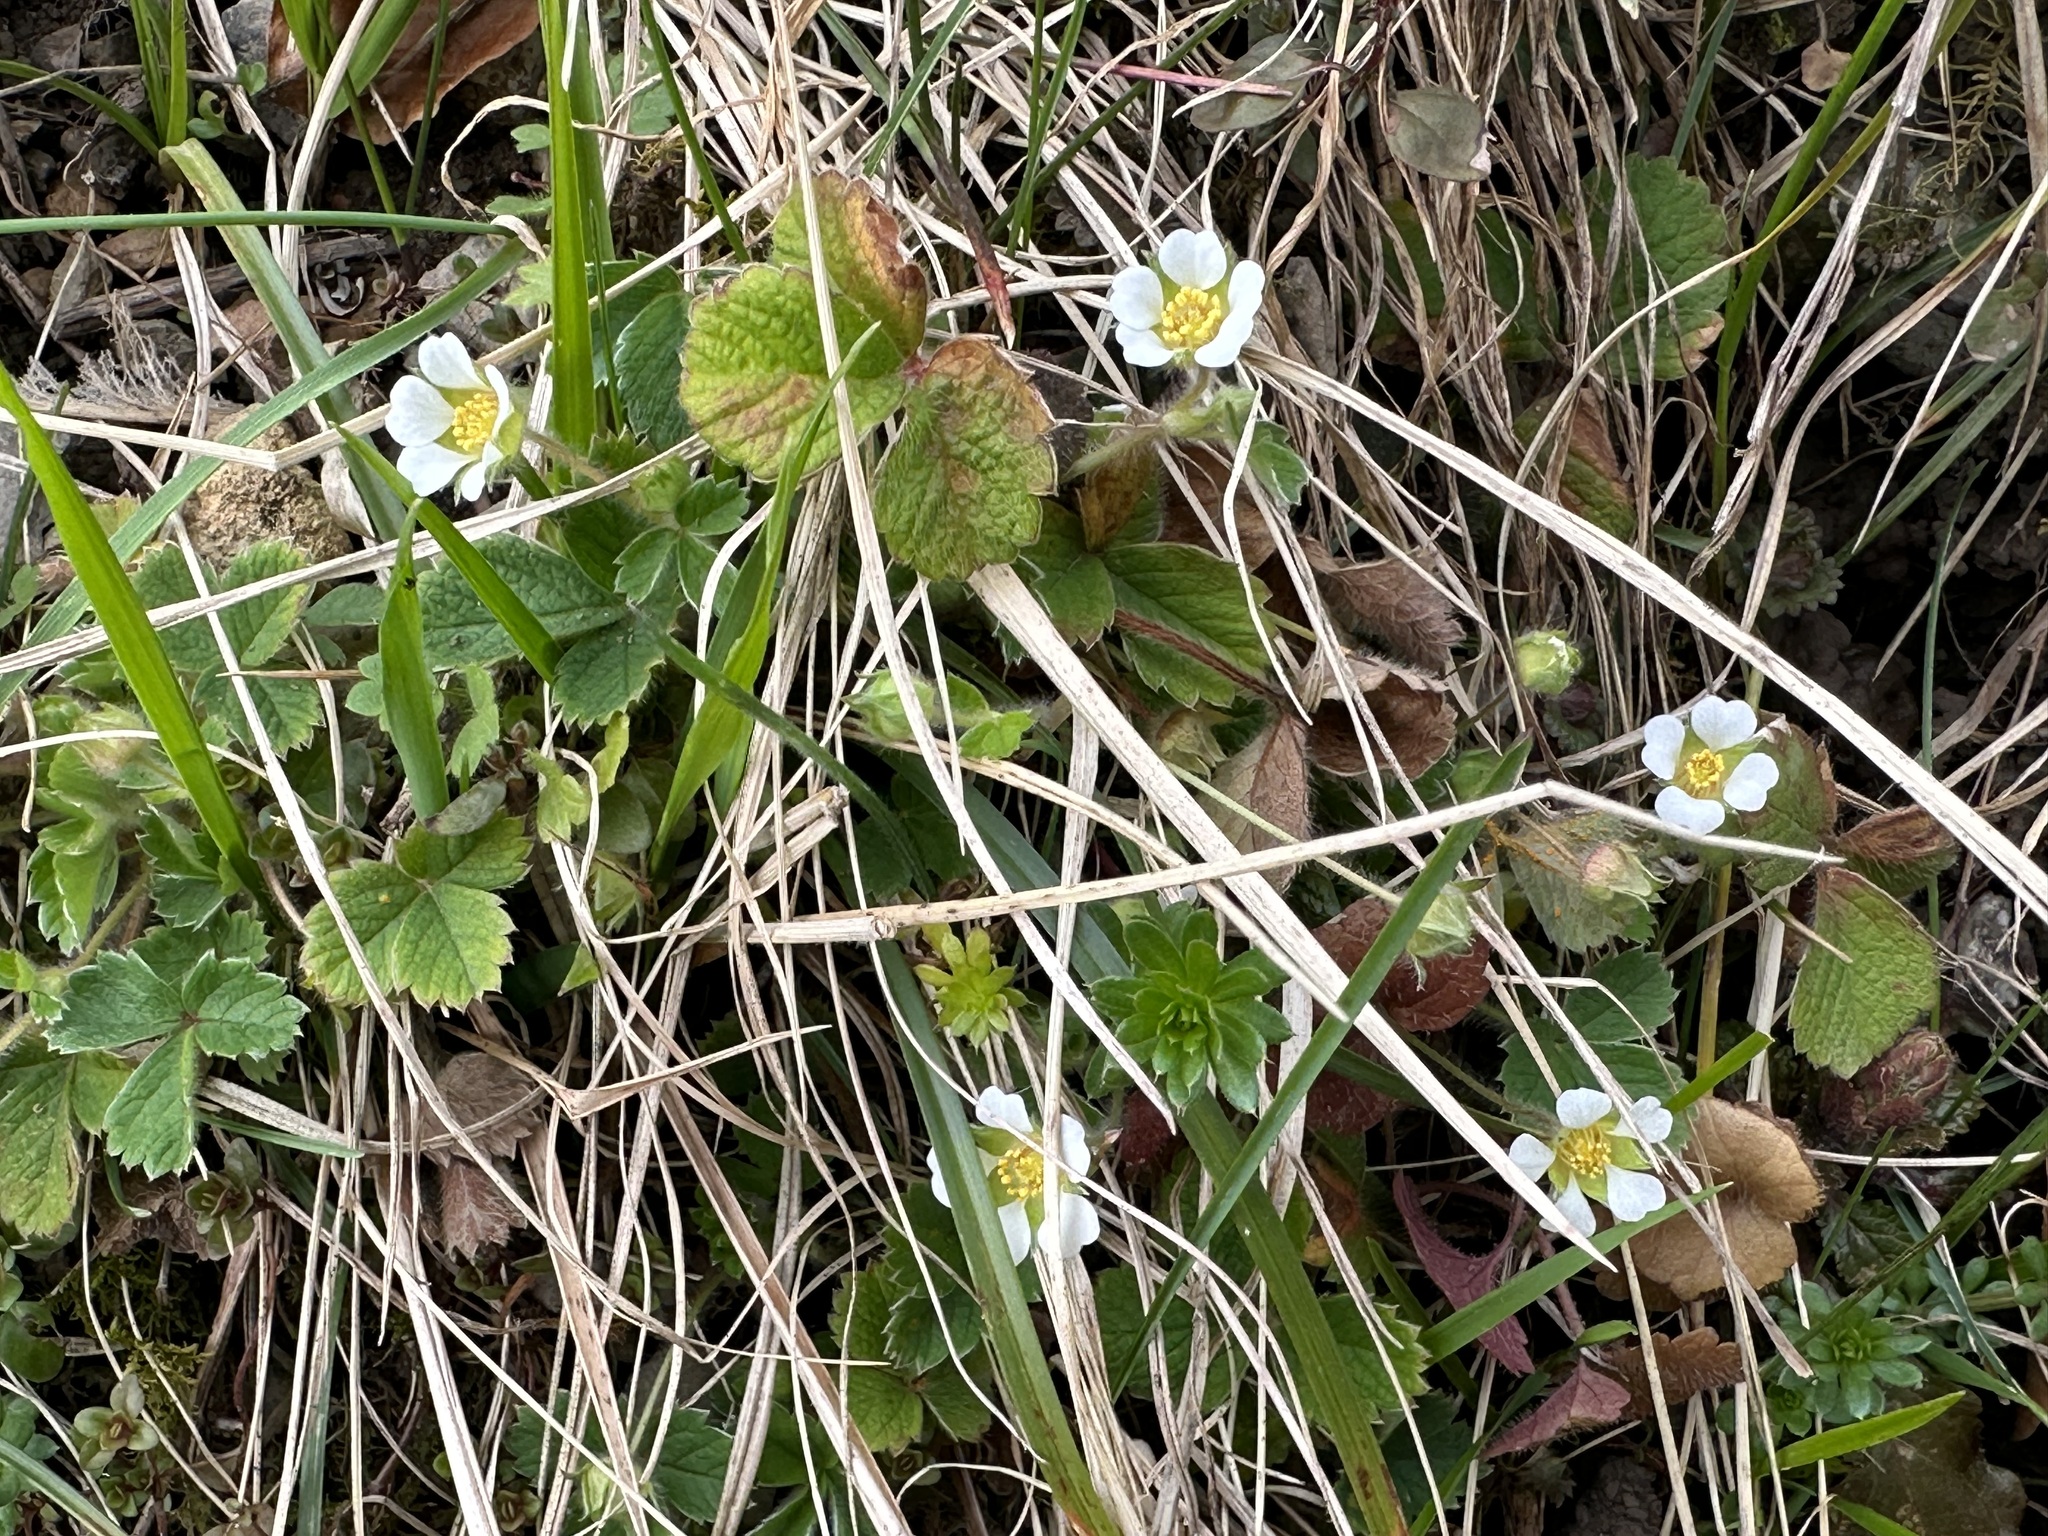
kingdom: Plantae
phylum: Tracheophyta
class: Magnoliopsida
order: Rosales
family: Rosaceae
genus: Potentilla
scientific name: Potentilla sterilis
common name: Barren strawberry
